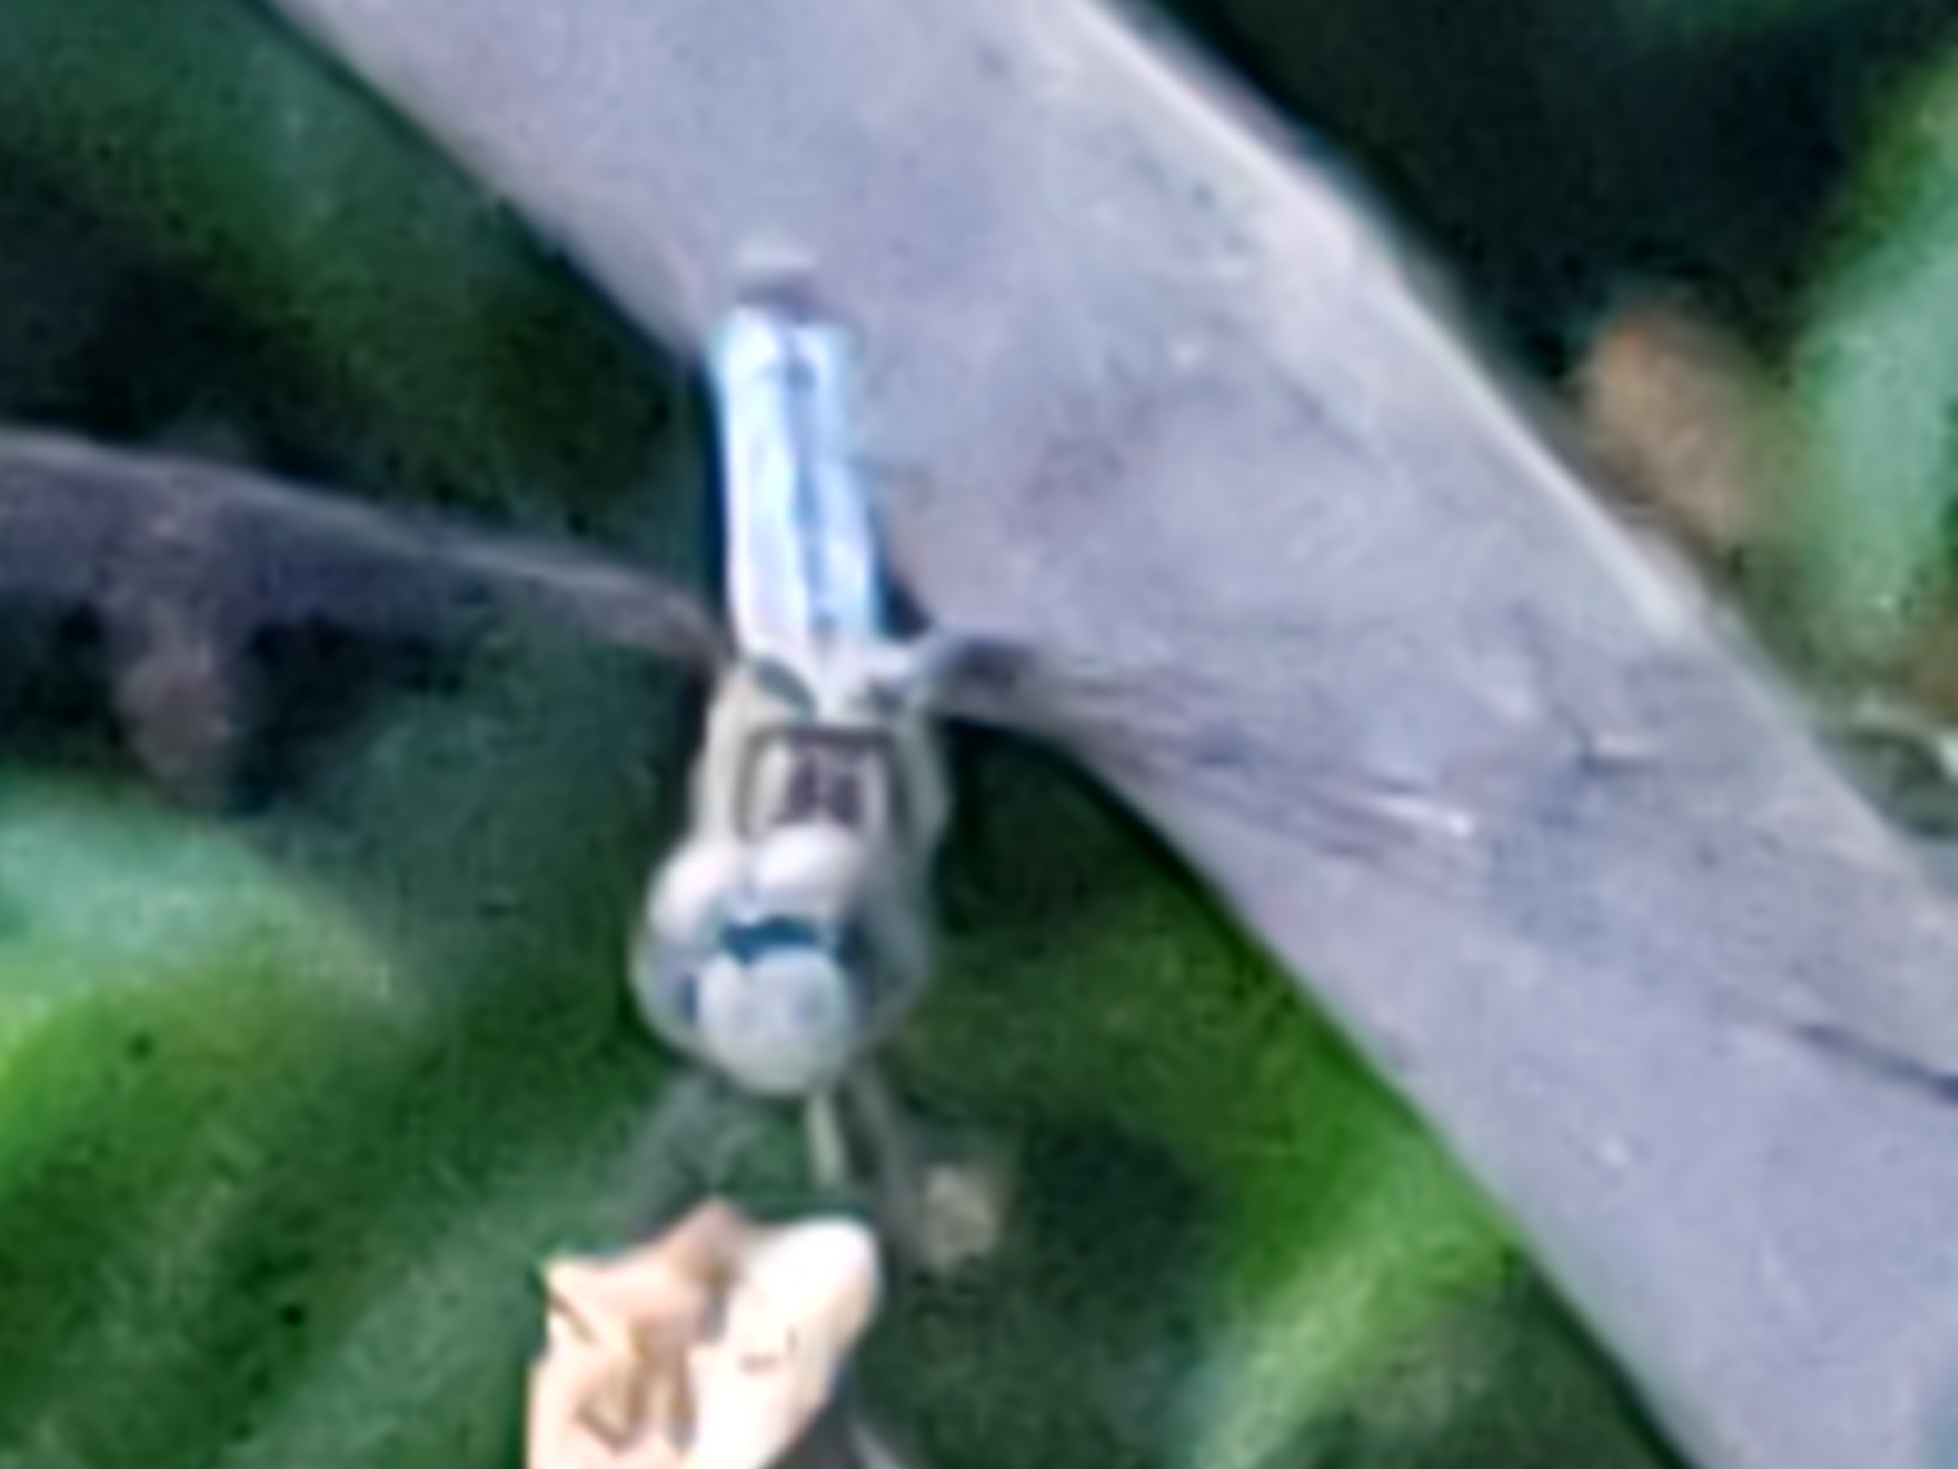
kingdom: Animalia
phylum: Arthropoda
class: Insecta
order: Odonata
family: Libellulidae
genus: Pachydiplax
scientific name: Pachydiplax longipennis
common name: Blue dasher
